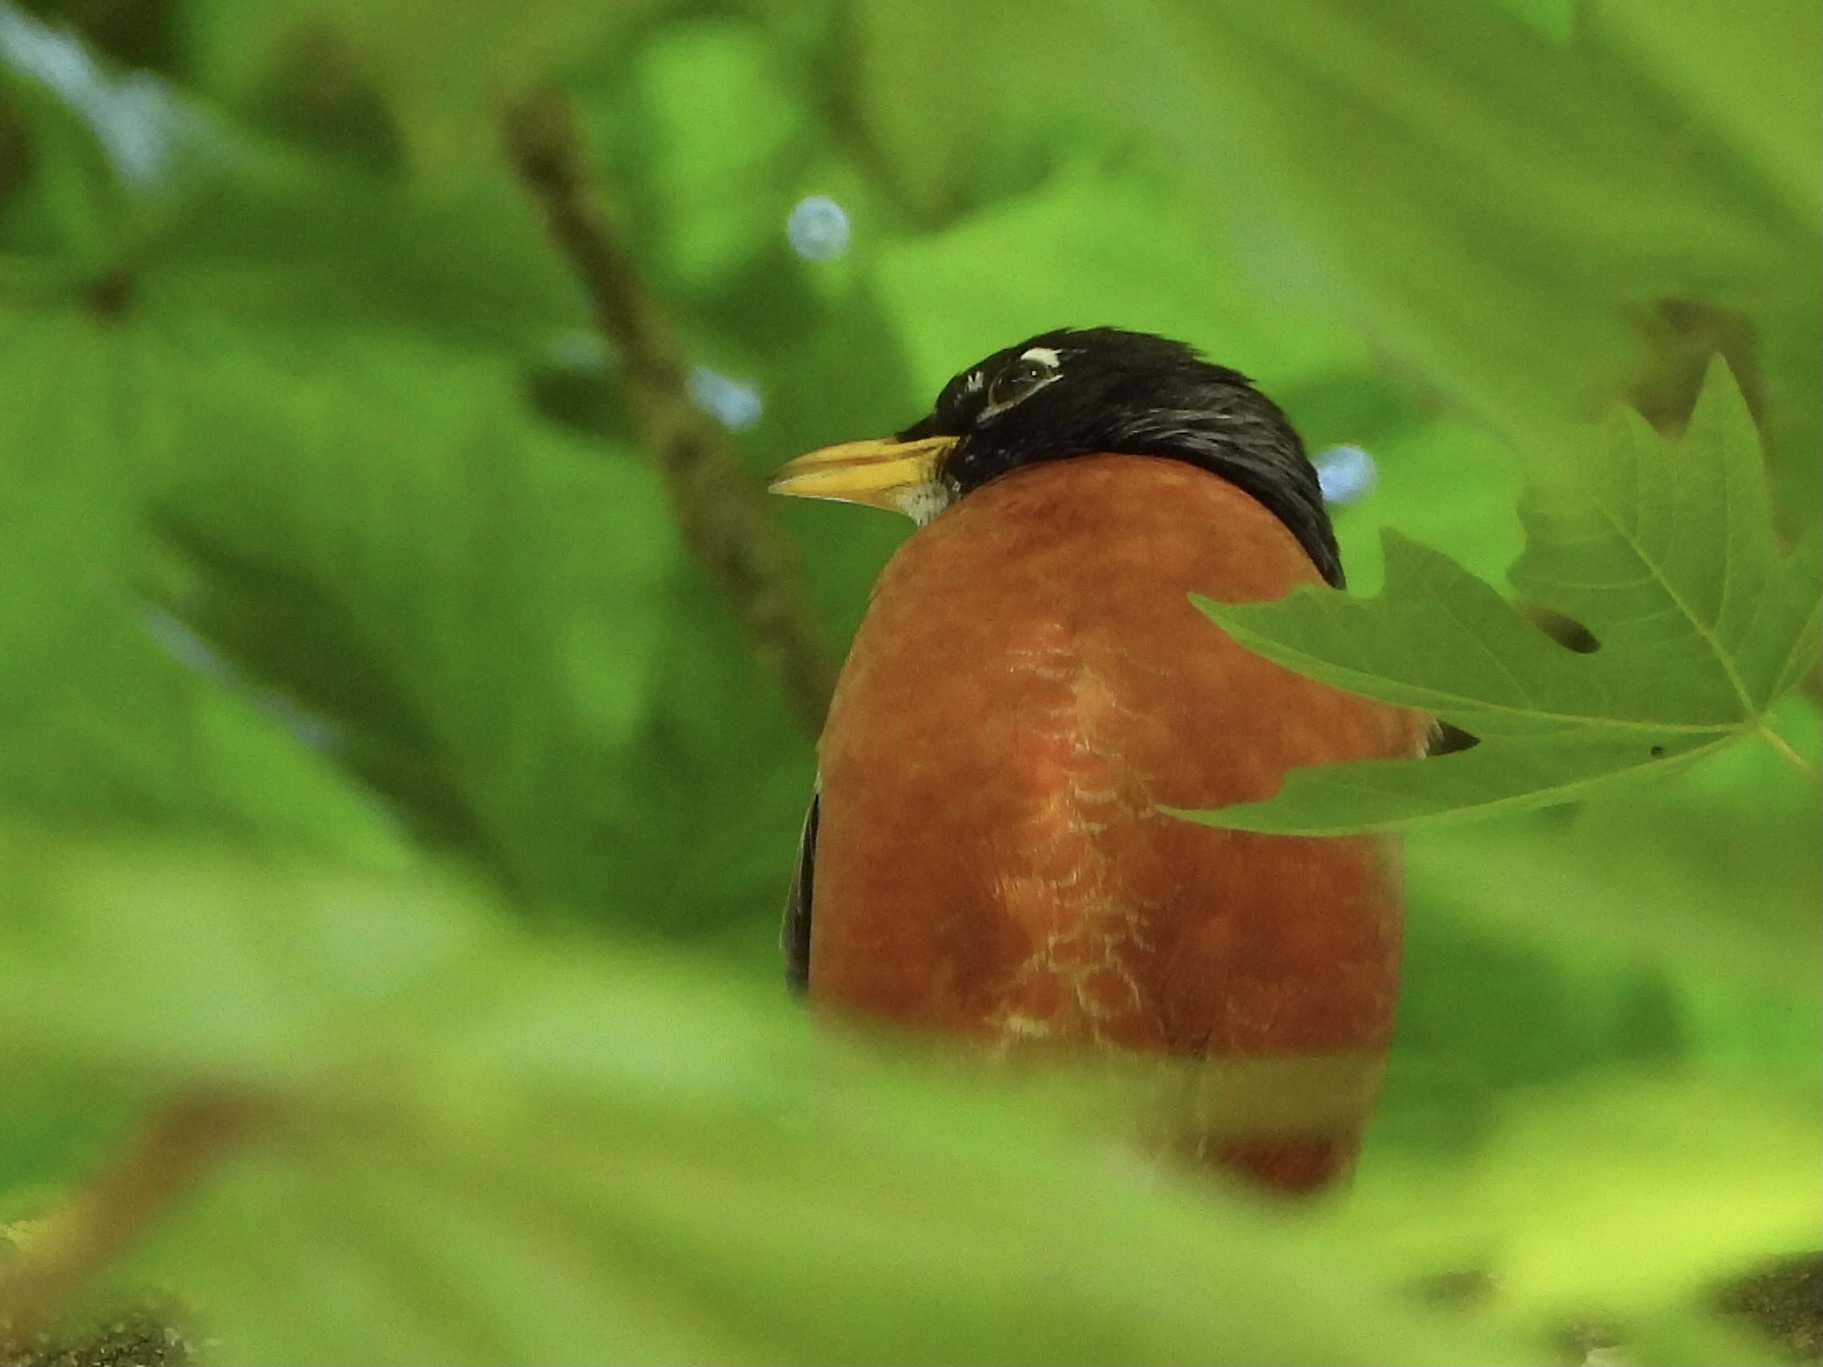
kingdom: Animalia
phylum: Chordata
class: Aves
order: Passeriformes
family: Turdidae
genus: Turdus
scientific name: Turdus migratorius
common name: American robin
